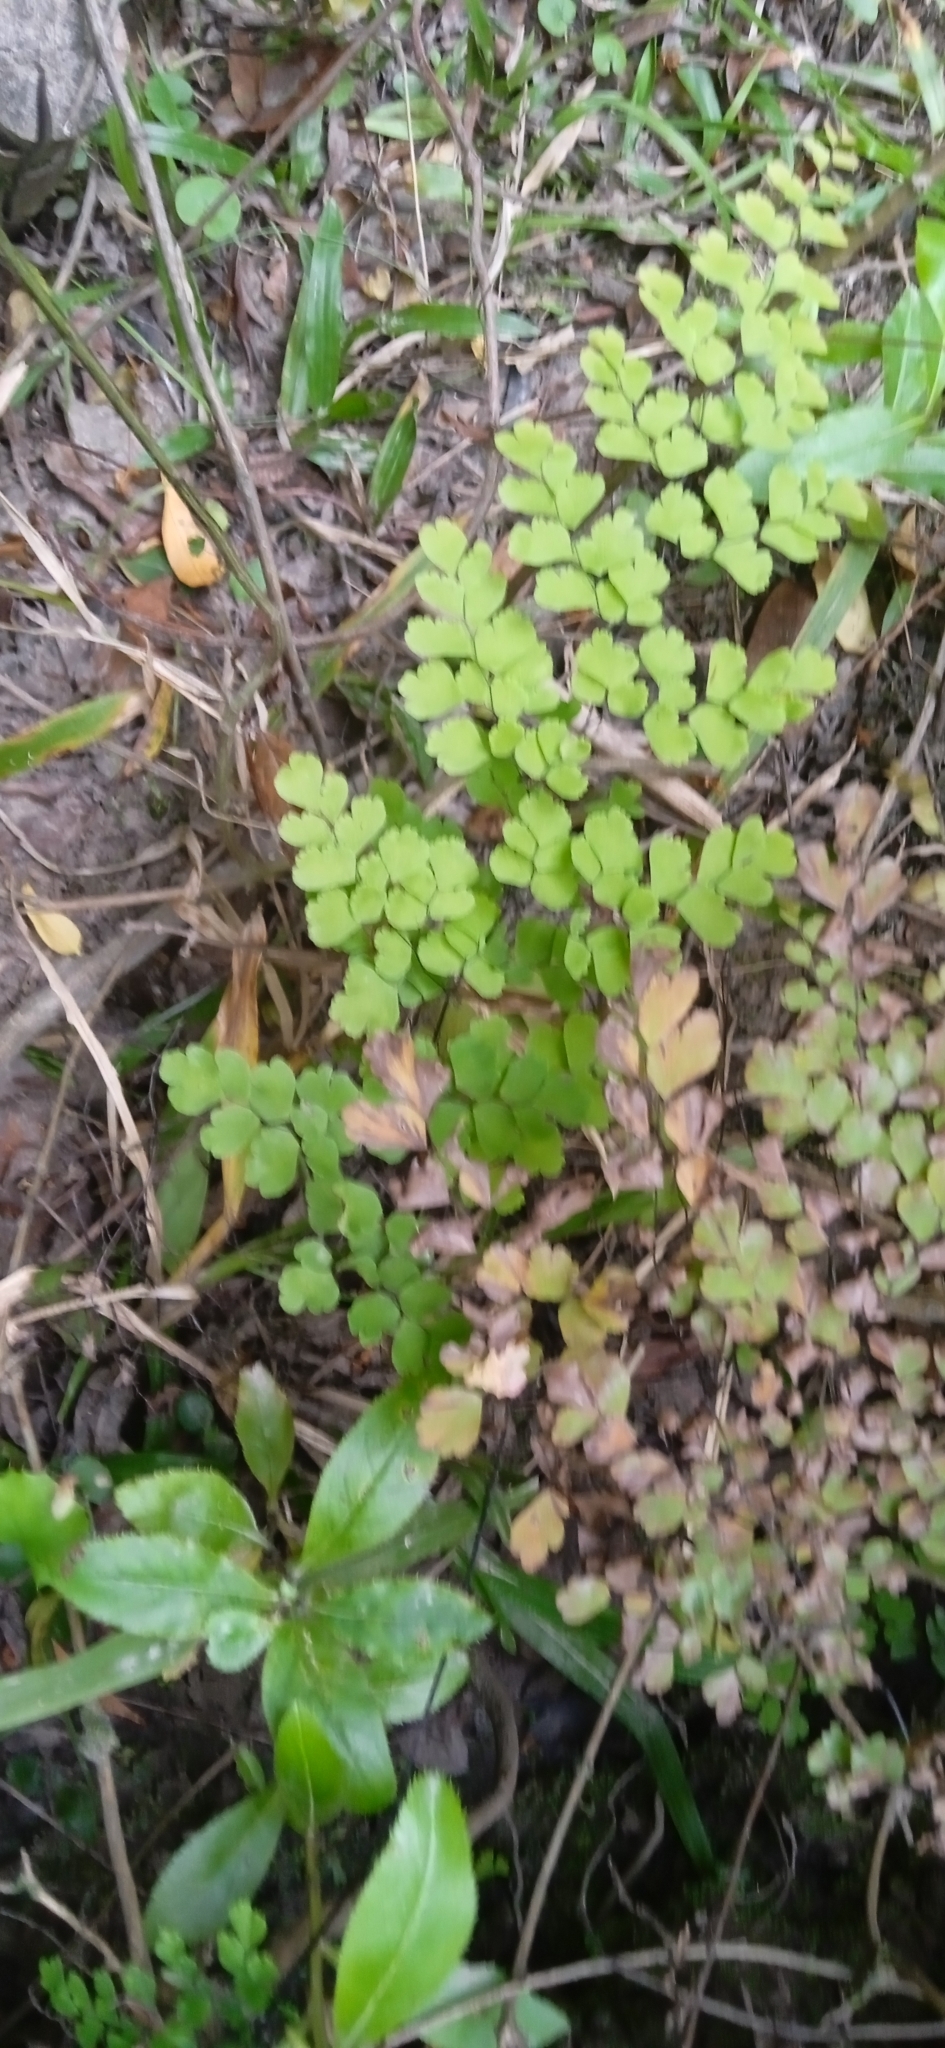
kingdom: Plantae
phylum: Tracheophyta
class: Polypodiopsida
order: Polypodiales
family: Pteridaceae
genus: Adiantum
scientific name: Adiantum raddianum
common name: Delta maidenhair fern
